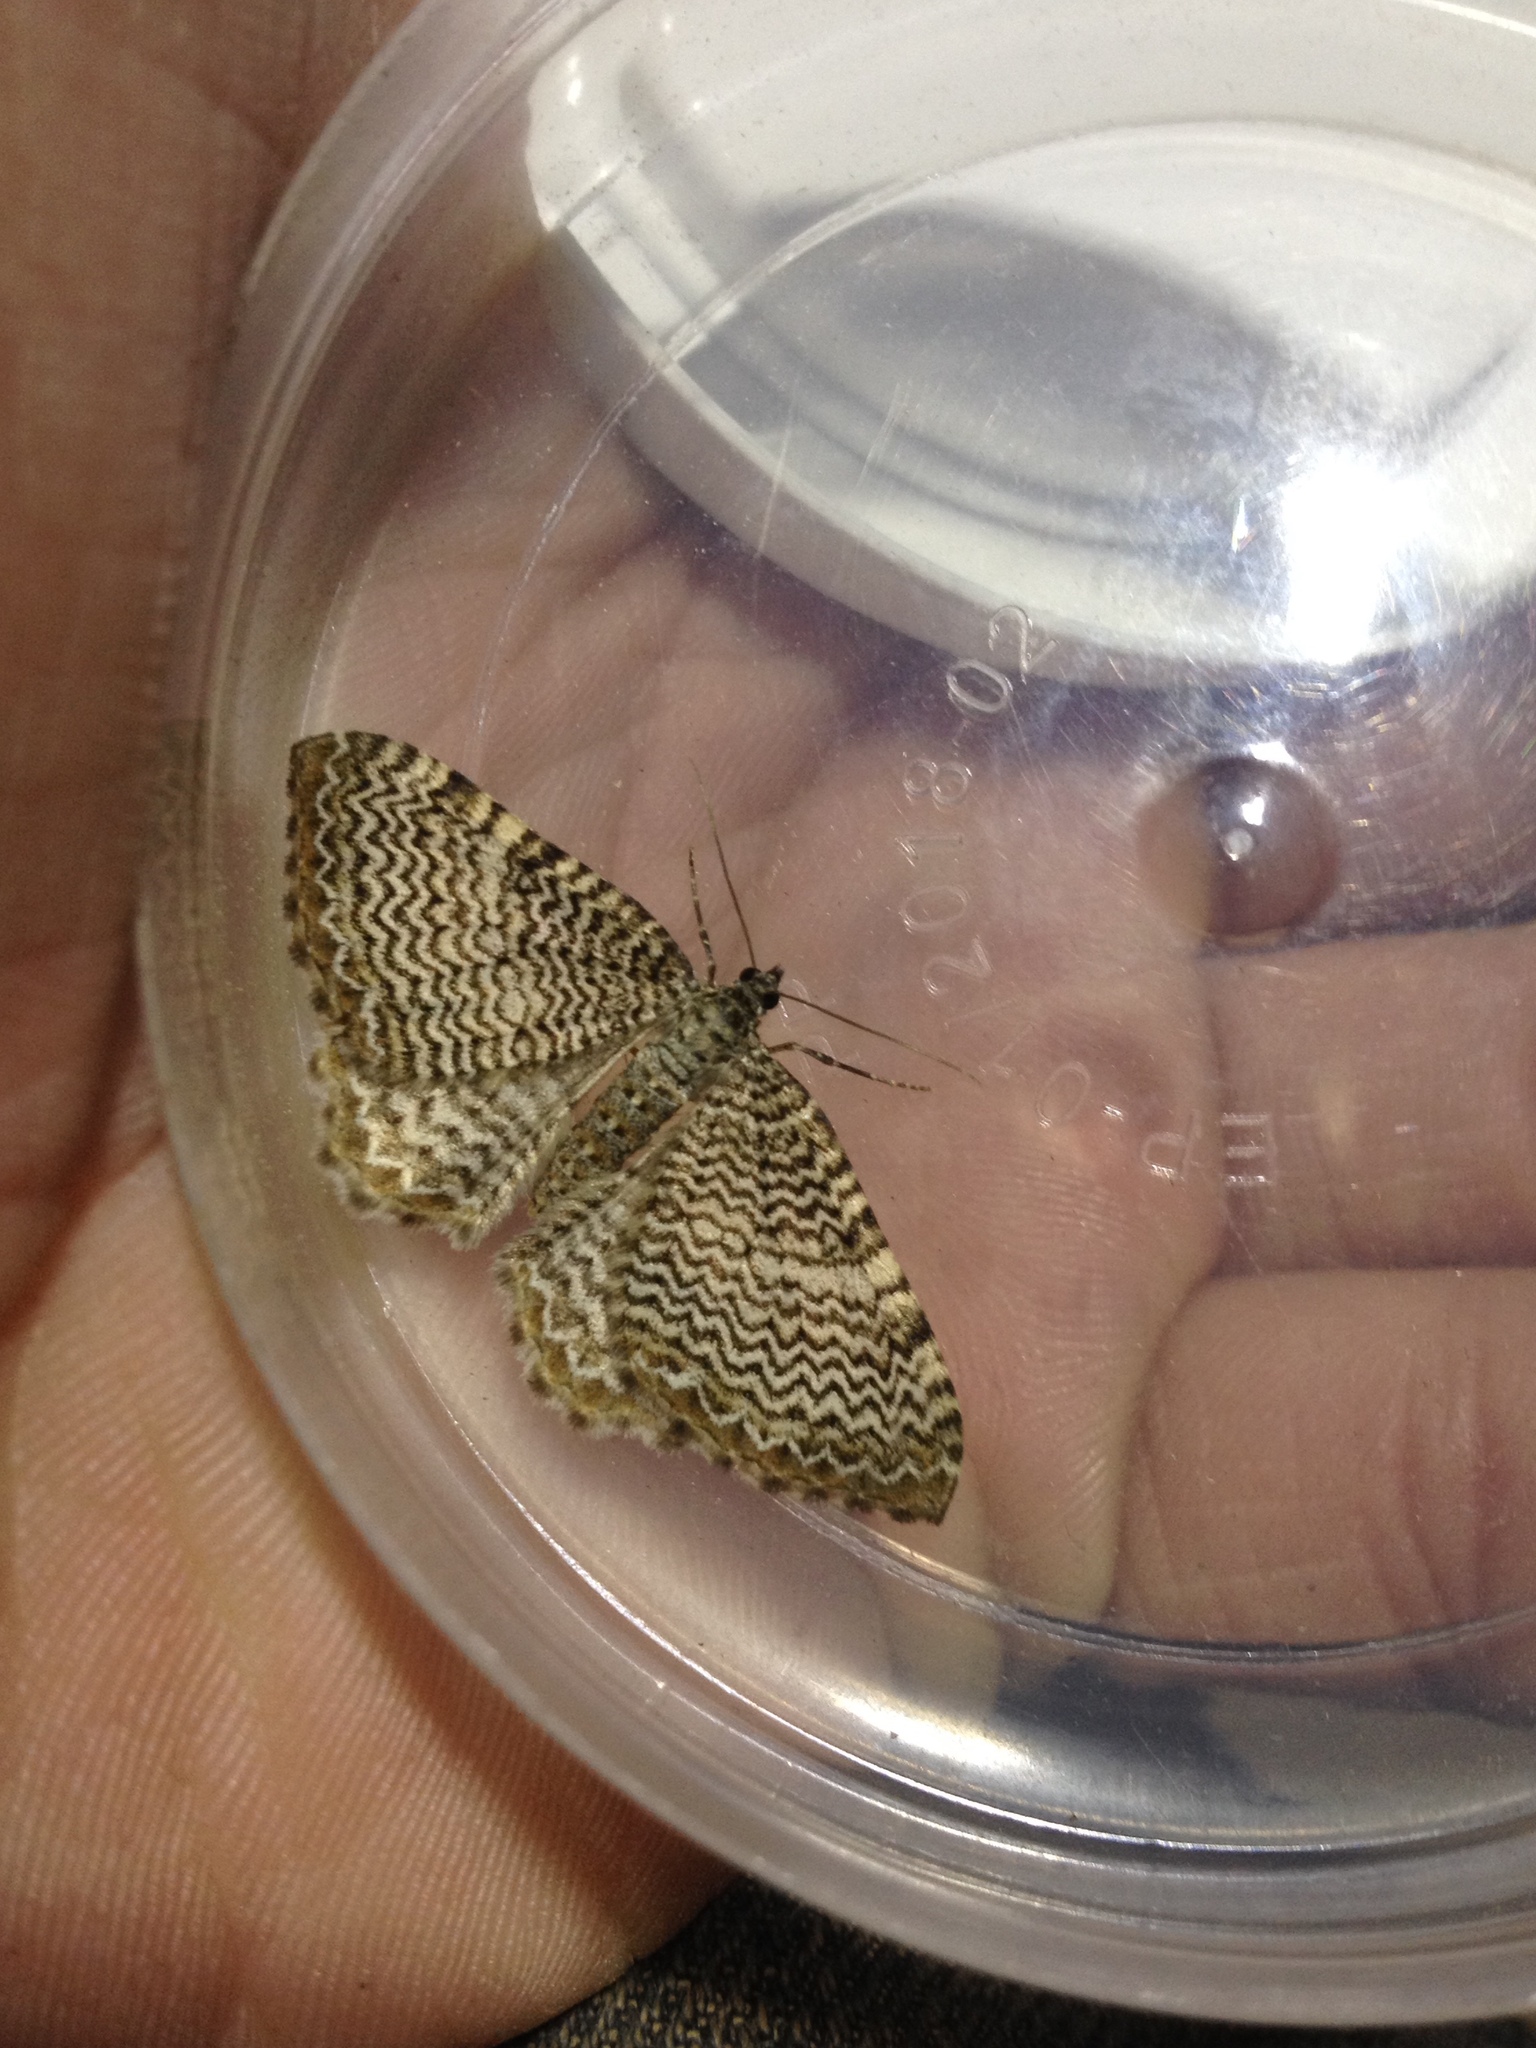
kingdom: Animalia
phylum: Arthropoda
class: Insecta
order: Lepidoptera
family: Geometridae
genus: Rheumaptera
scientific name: Rheumaptera undulata
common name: Scallop shell
